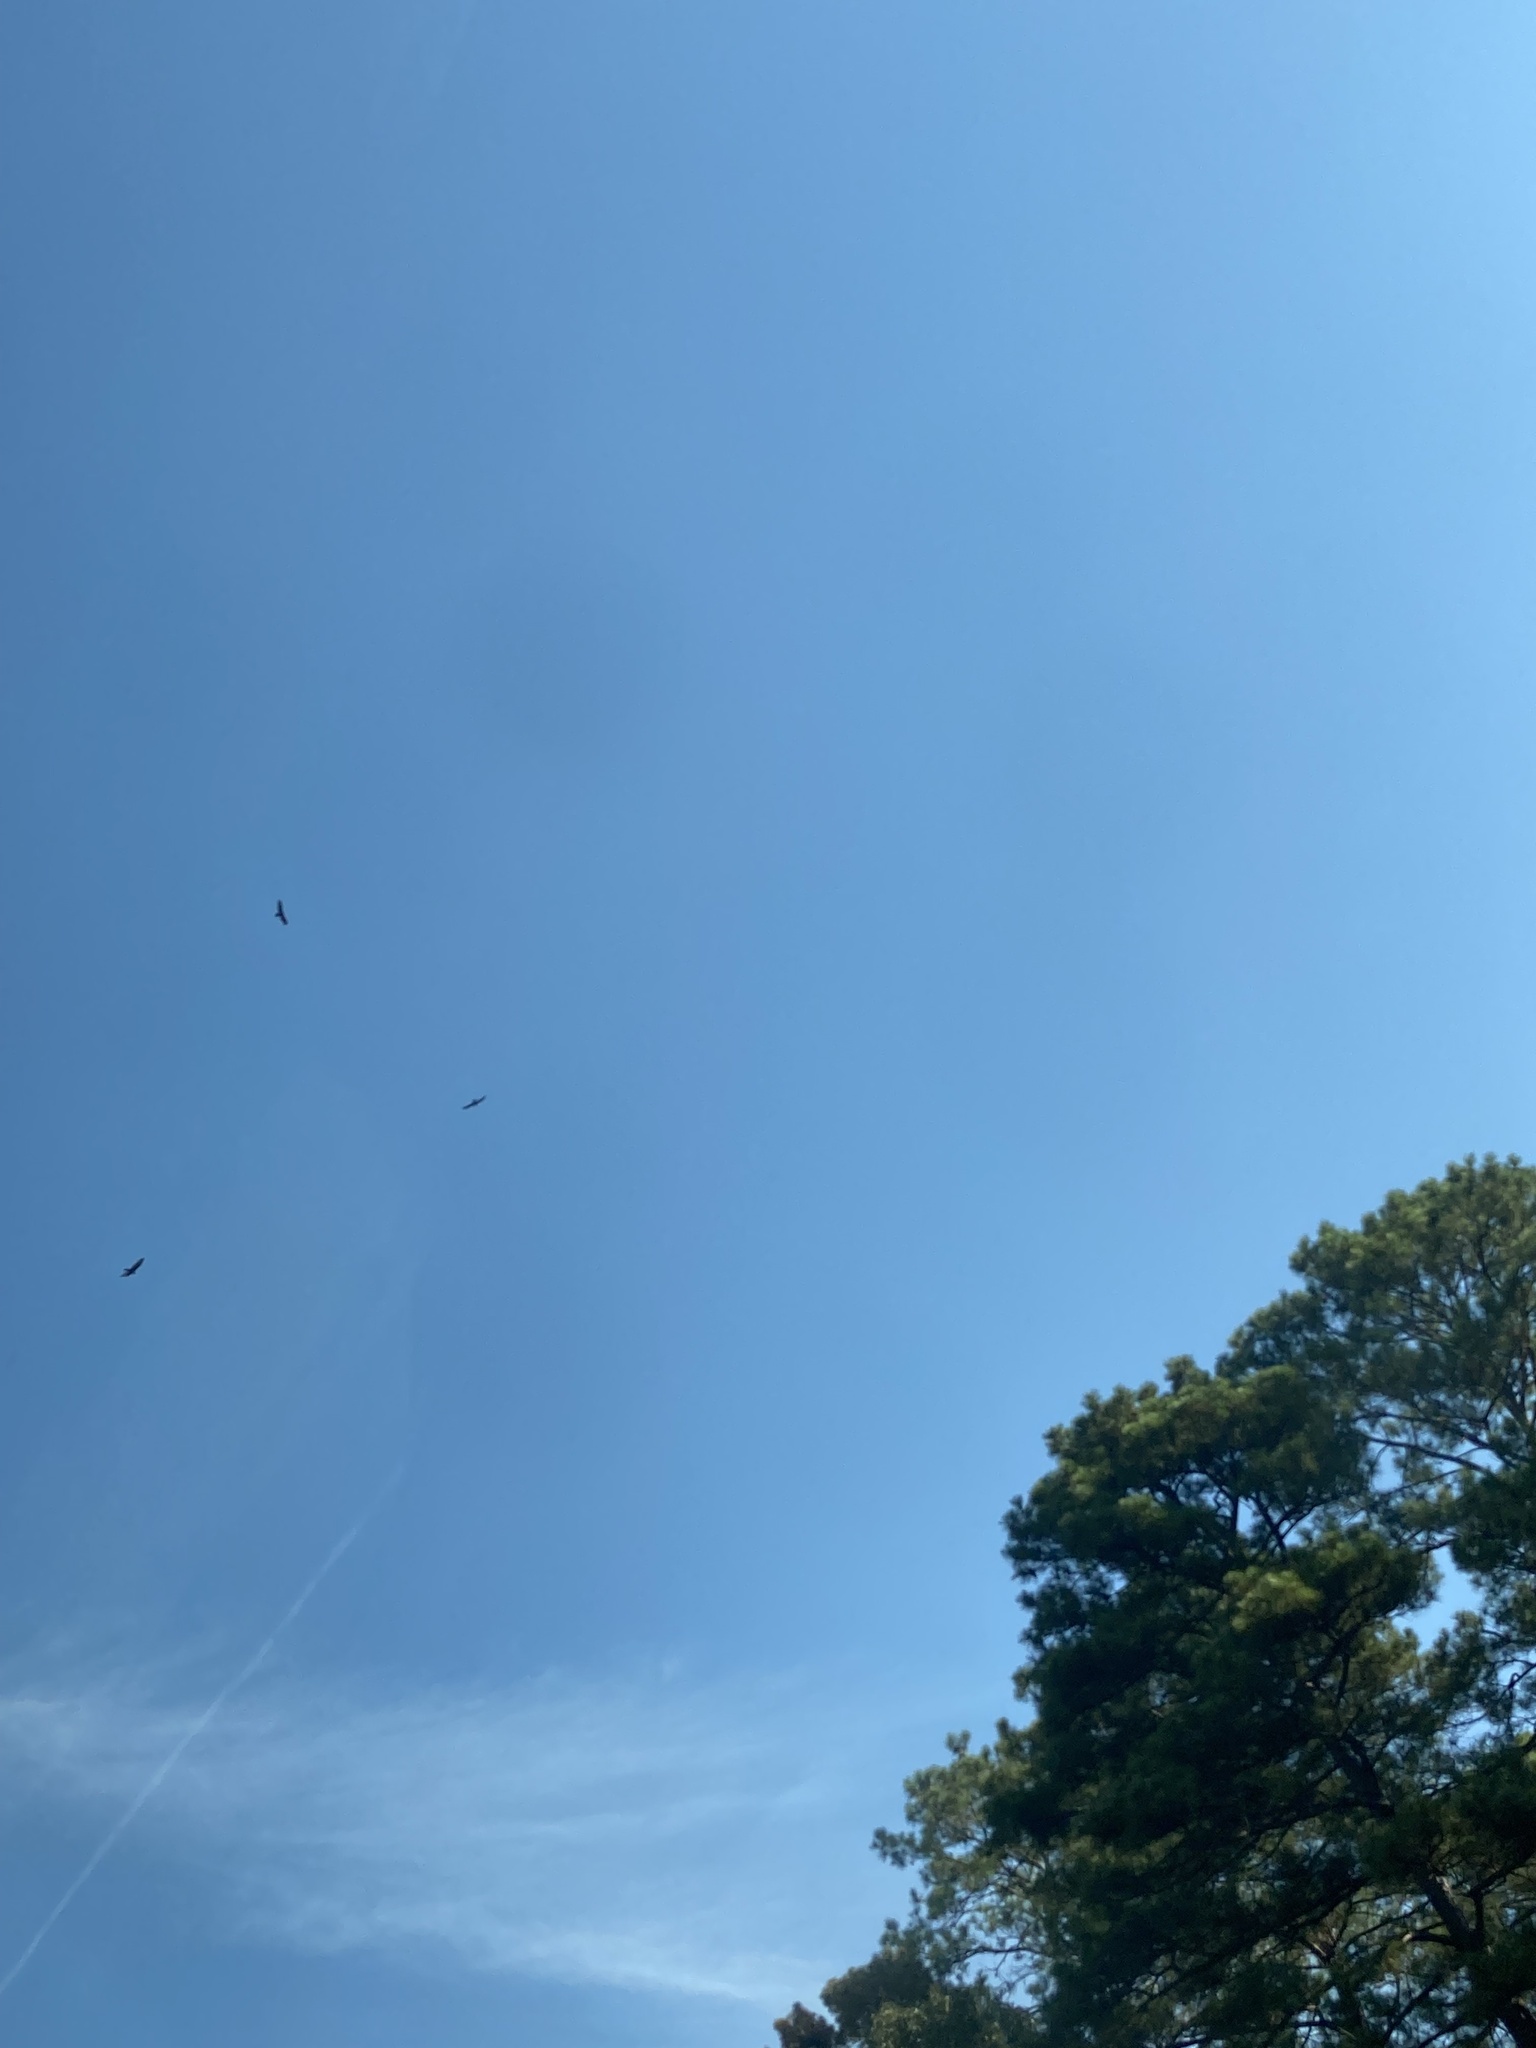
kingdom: Animalia
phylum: Chordata
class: Aves
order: Accipitriformes
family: Cathartidae
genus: Cathartes
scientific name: Cathartes aura
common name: Turkey vulture
